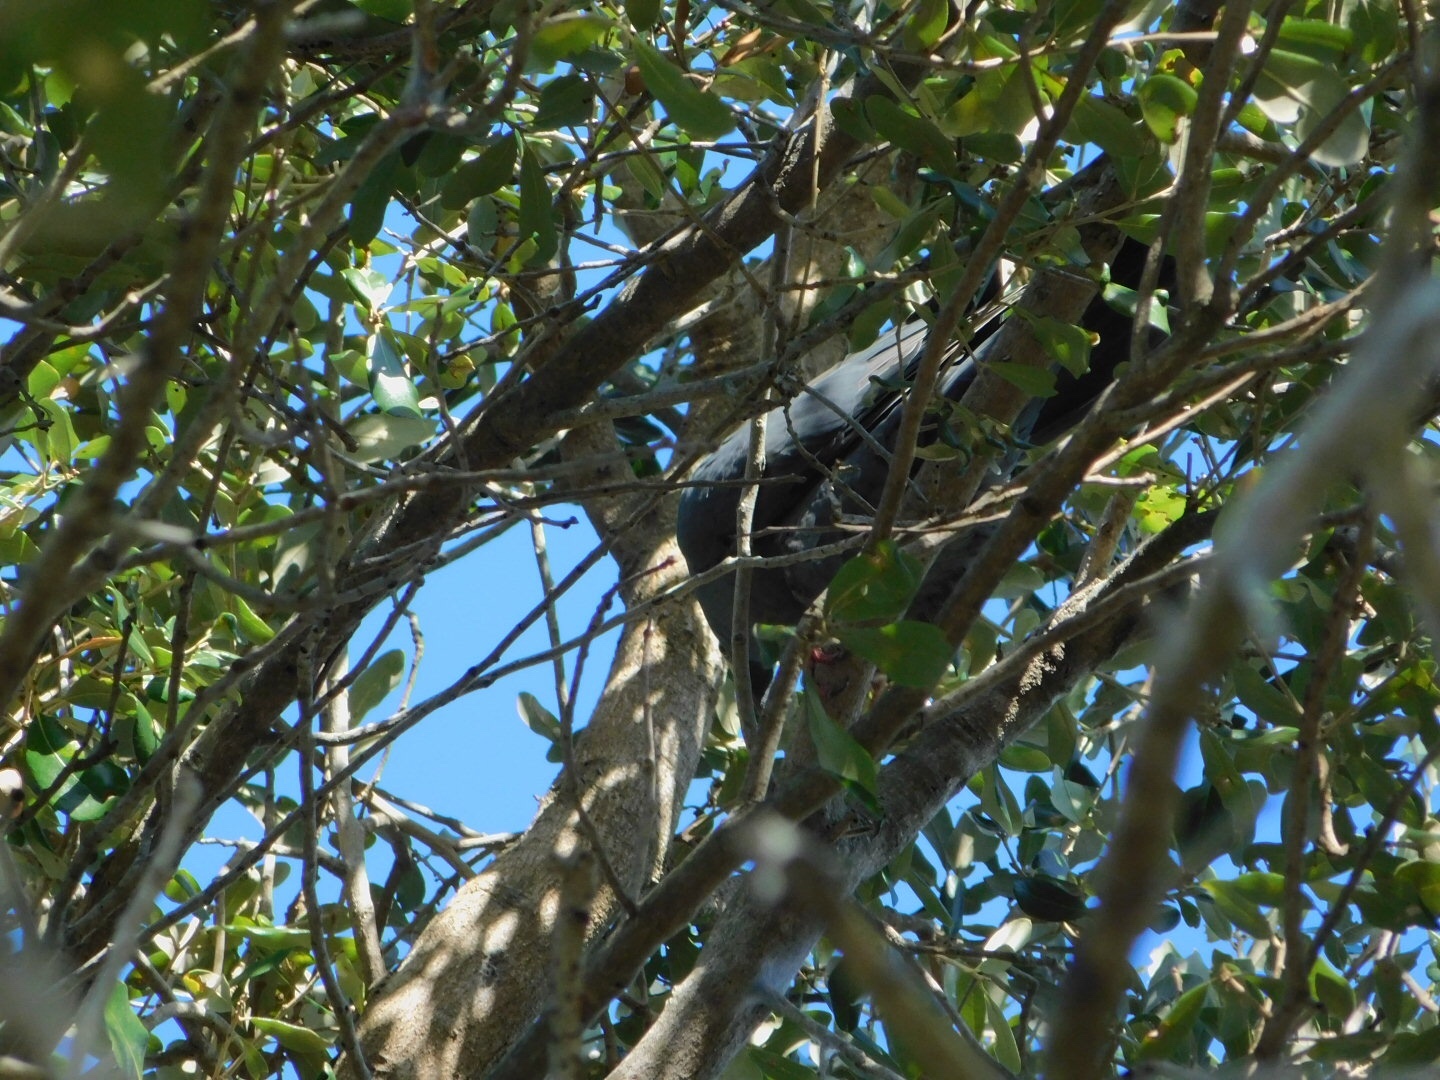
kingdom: Animalia
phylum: Chordata
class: Aves
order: Columbiformes
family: Columbidae
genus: Patagioenas
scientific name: Patagioenas leucocephala
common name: White-crowned pigeon
